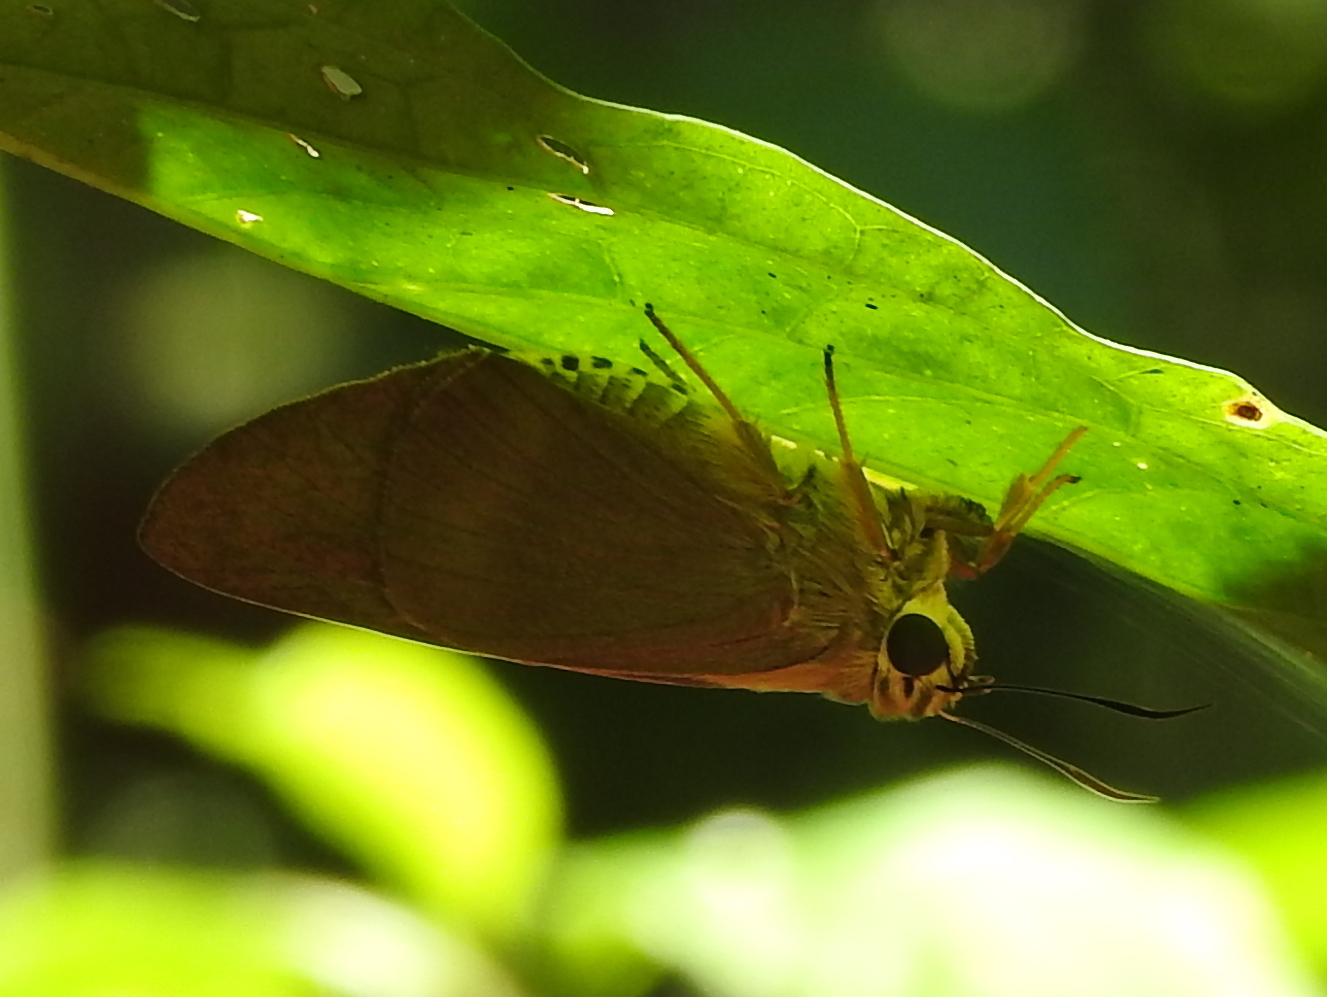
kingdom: Animalia
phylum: Arthropoda
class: Insecta
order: Lepidoptera
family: Hesperiidae
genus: Badamia
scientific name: Badamia exclamationis
